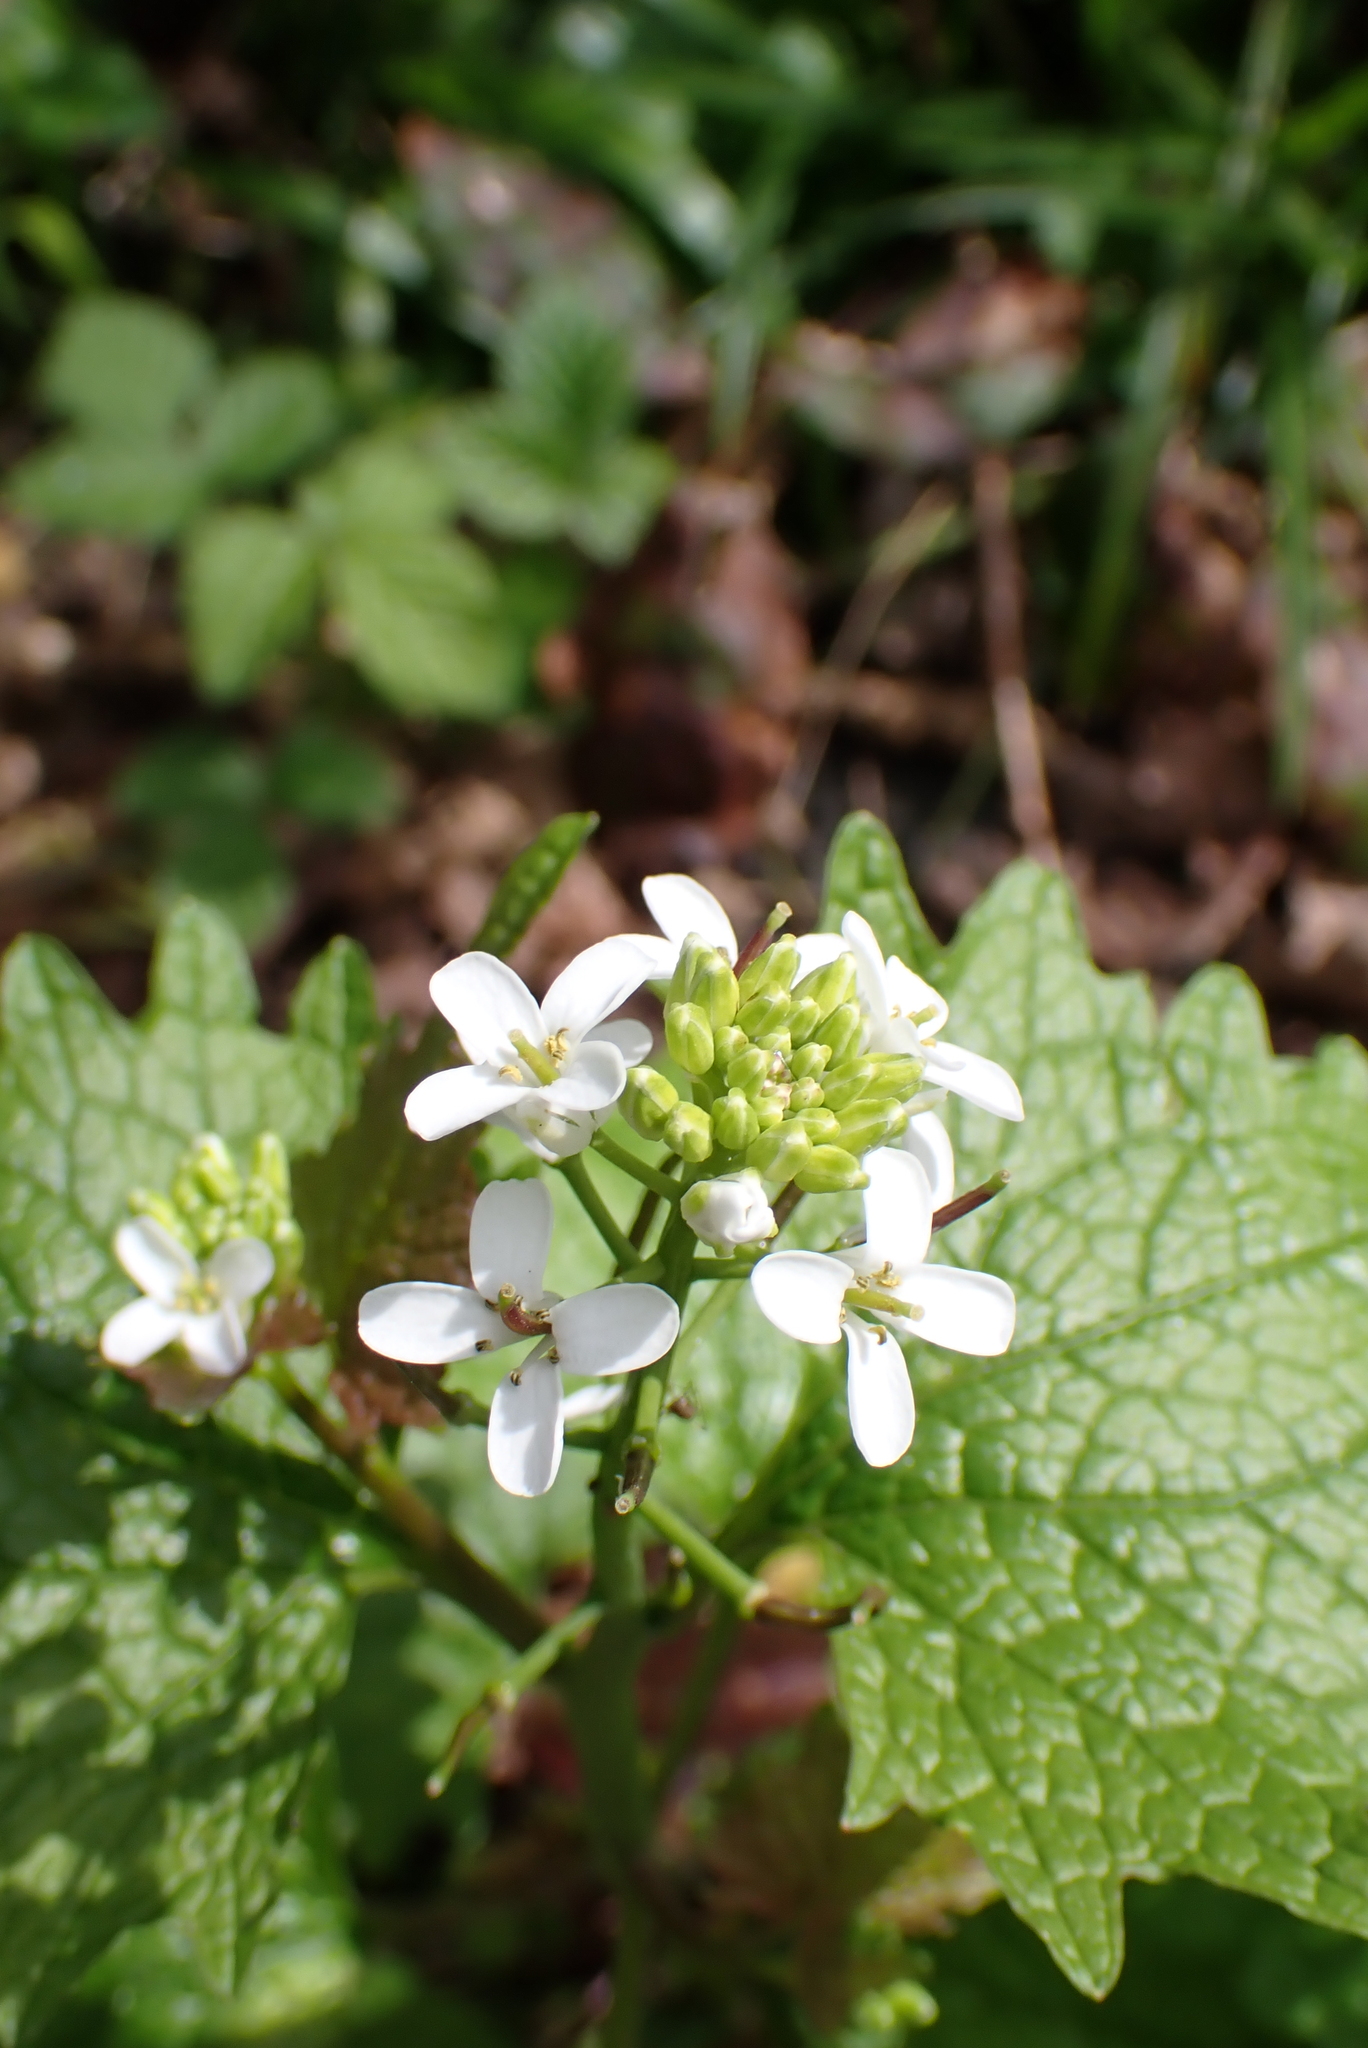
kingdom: Plantae
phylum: Tracheophyta
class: Magnoliopsida
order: Brassicales
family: Brassicaceae
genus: Alliaria
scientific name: Alliaria petiolata
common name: Garlic mustard
